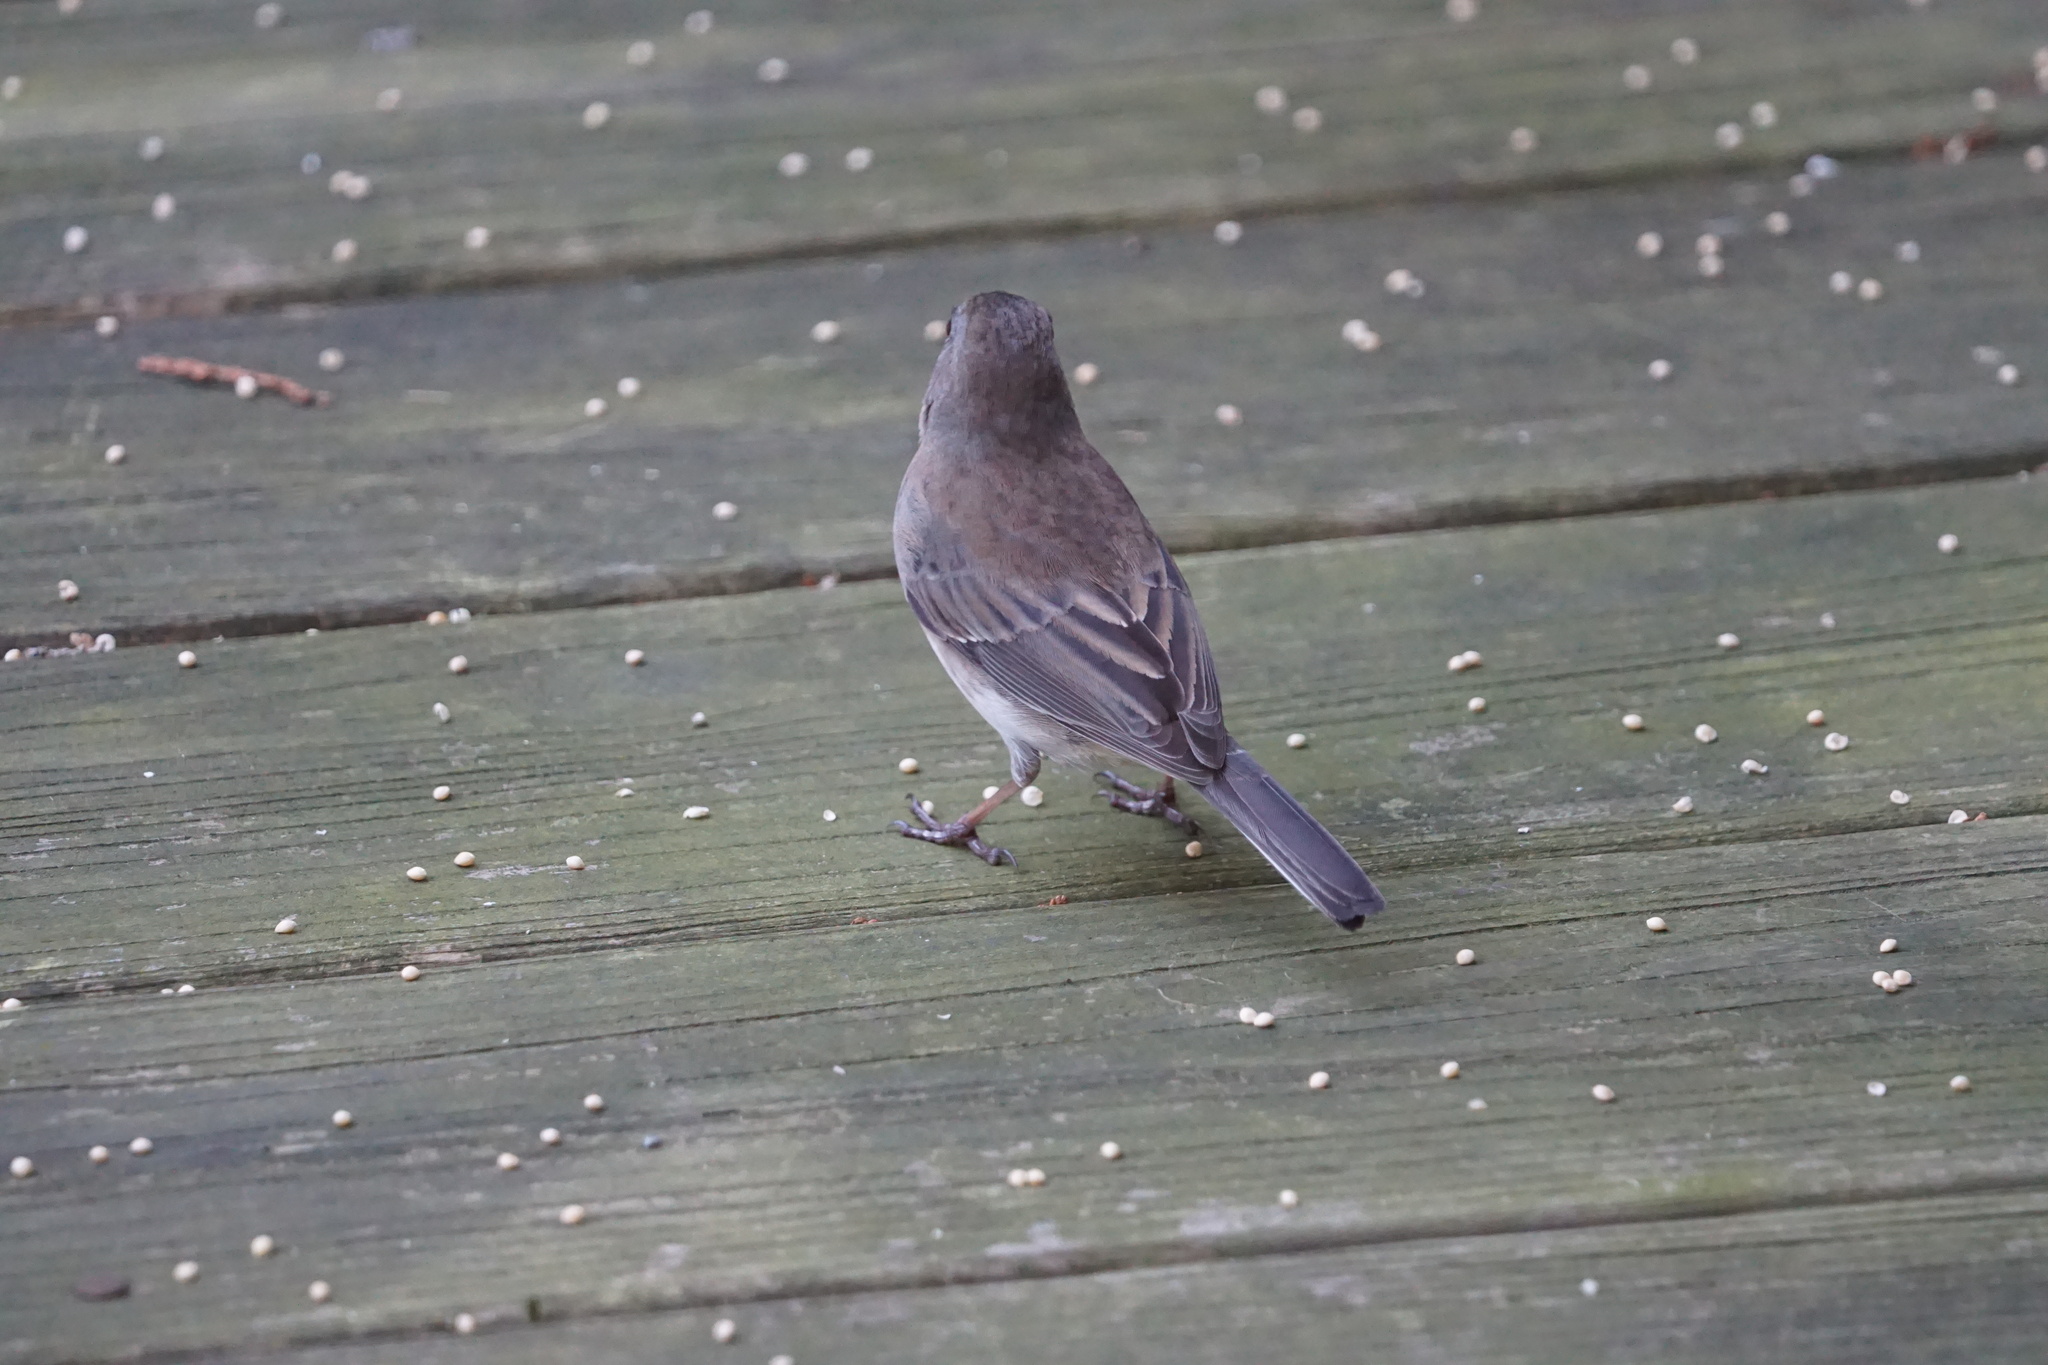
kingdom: Animalia
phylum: Chordata
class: Aves
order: Passeriformes
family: Passerellidae
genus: Junco
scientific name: Junco hyemalis
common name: Dark-eyed junco
